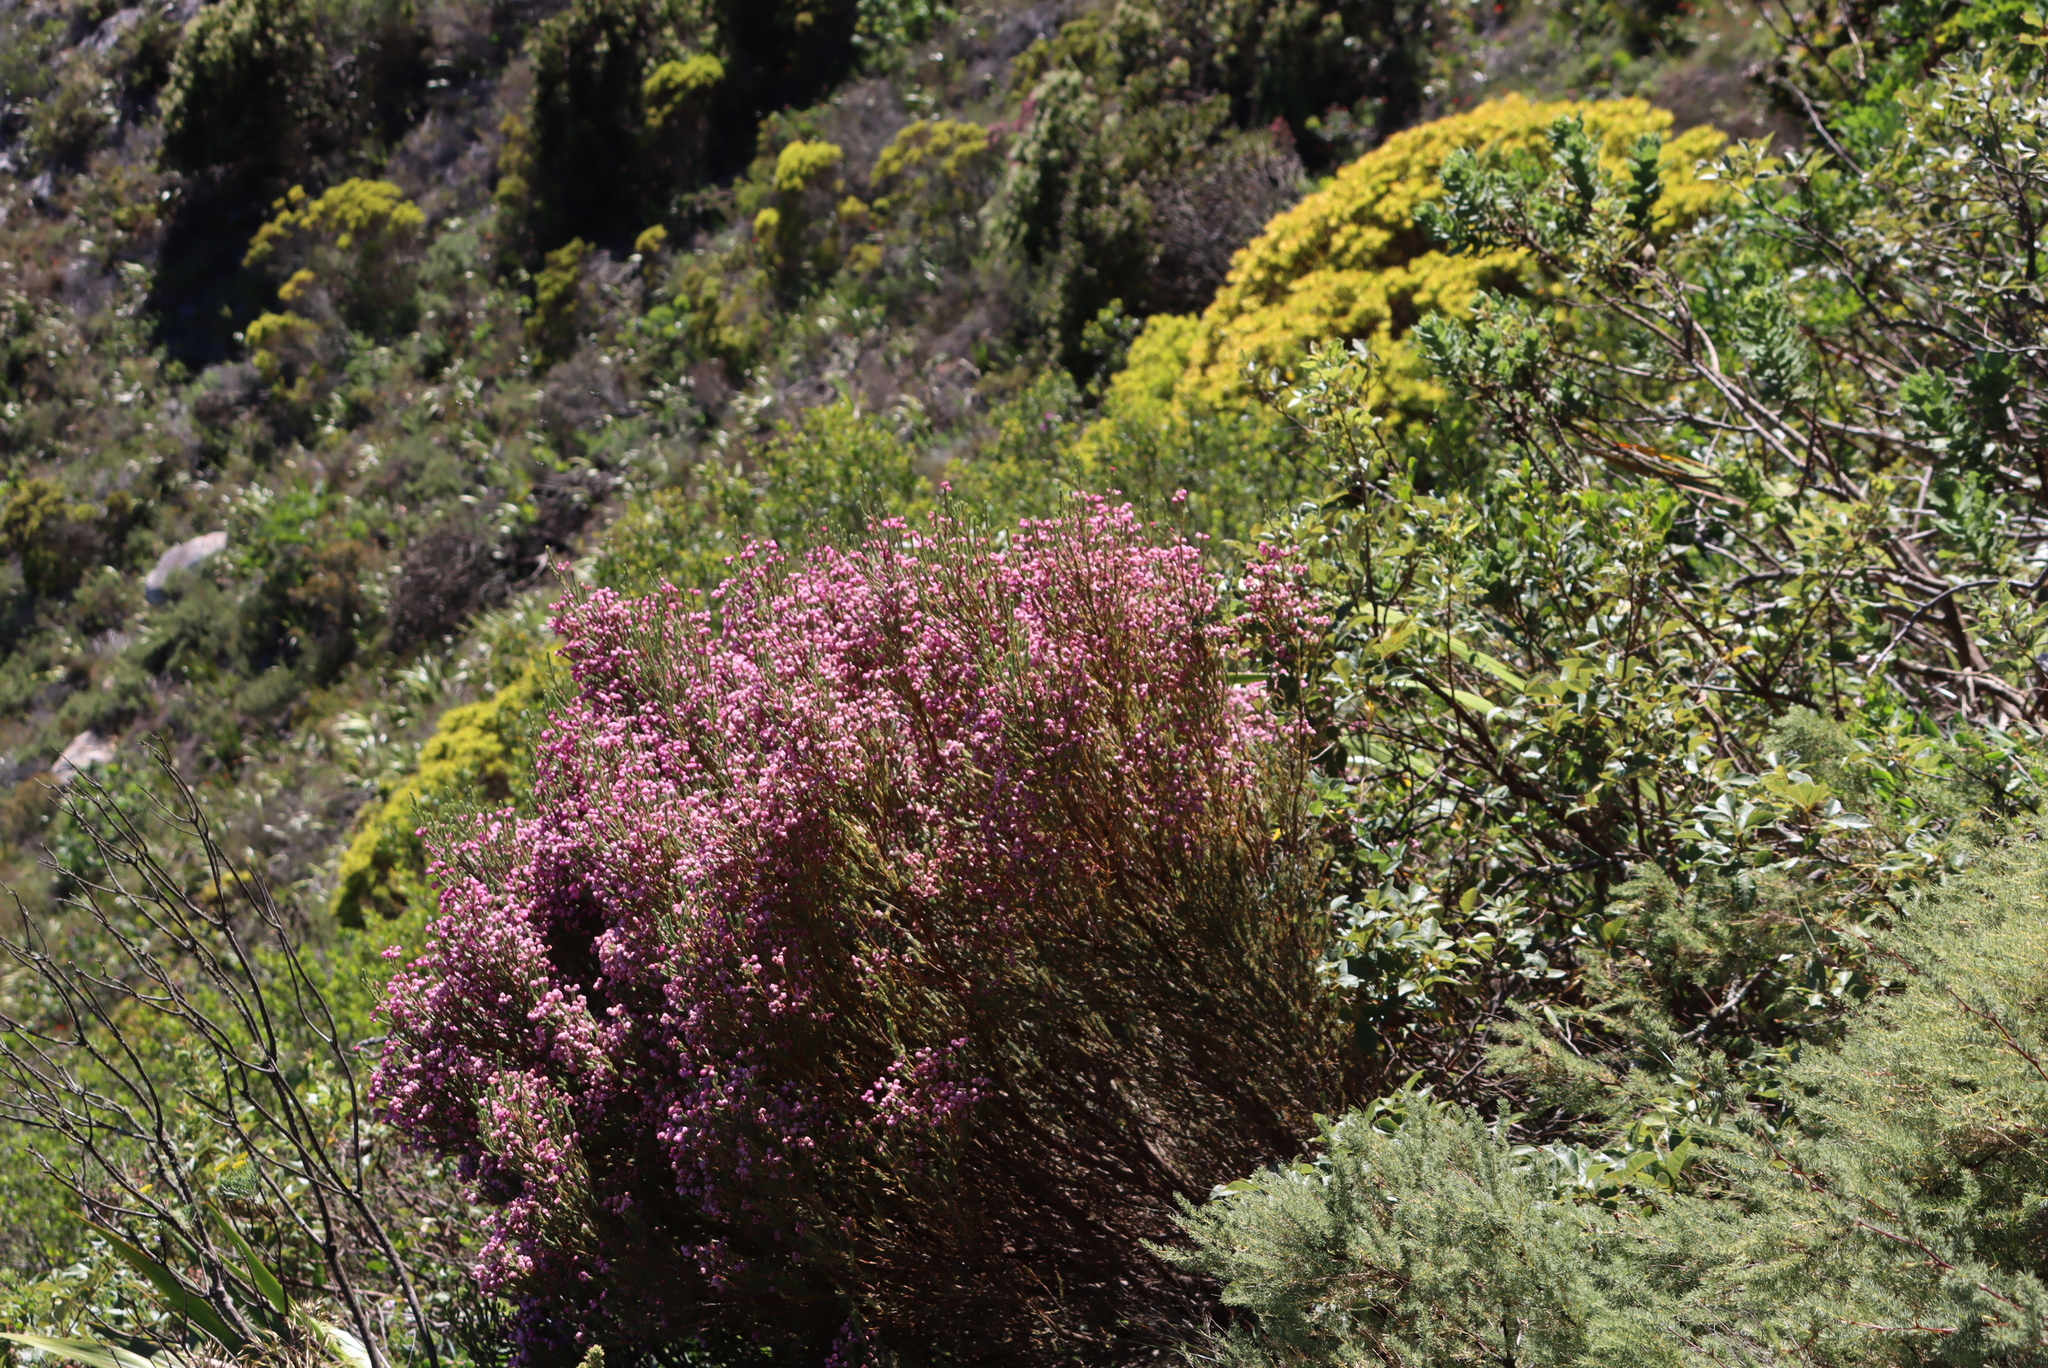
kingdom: Plantae
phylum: Tracheophyta
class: Magnoliopsida
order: Ericales
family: Ericaceae
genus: Erica
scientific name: Erica baccans
